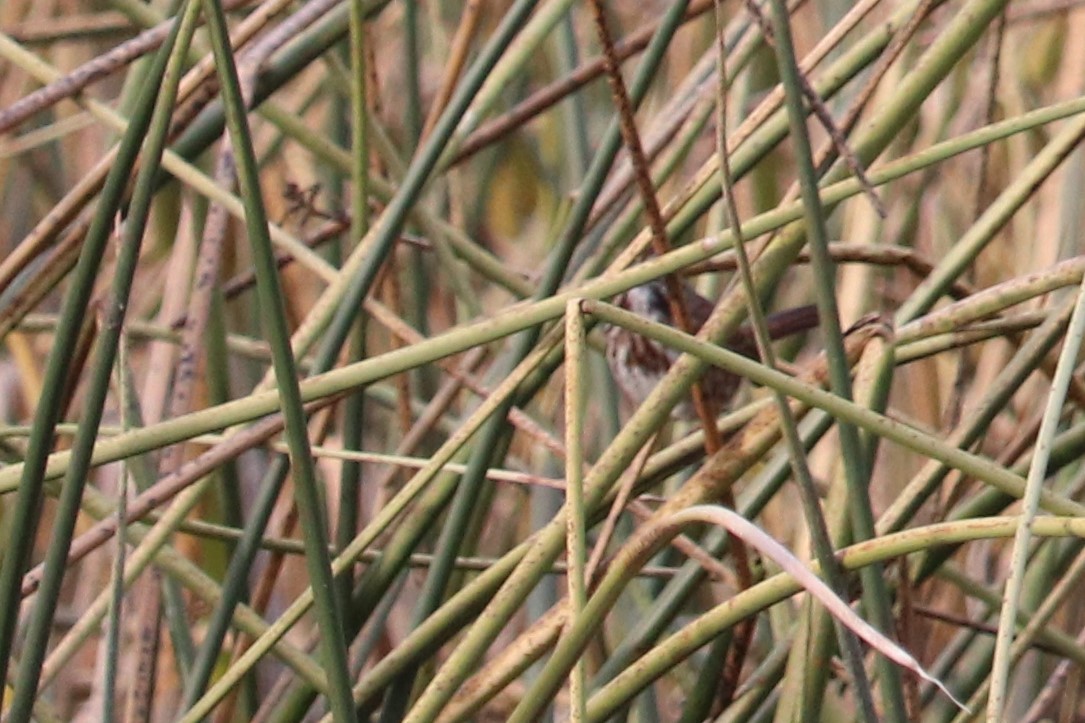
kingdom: Animalia
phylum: Chordata
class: Aves
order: Passeriformes
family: Passerellidae
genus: Melospiza
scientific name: Melospiza melodia
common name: Song sparrow
